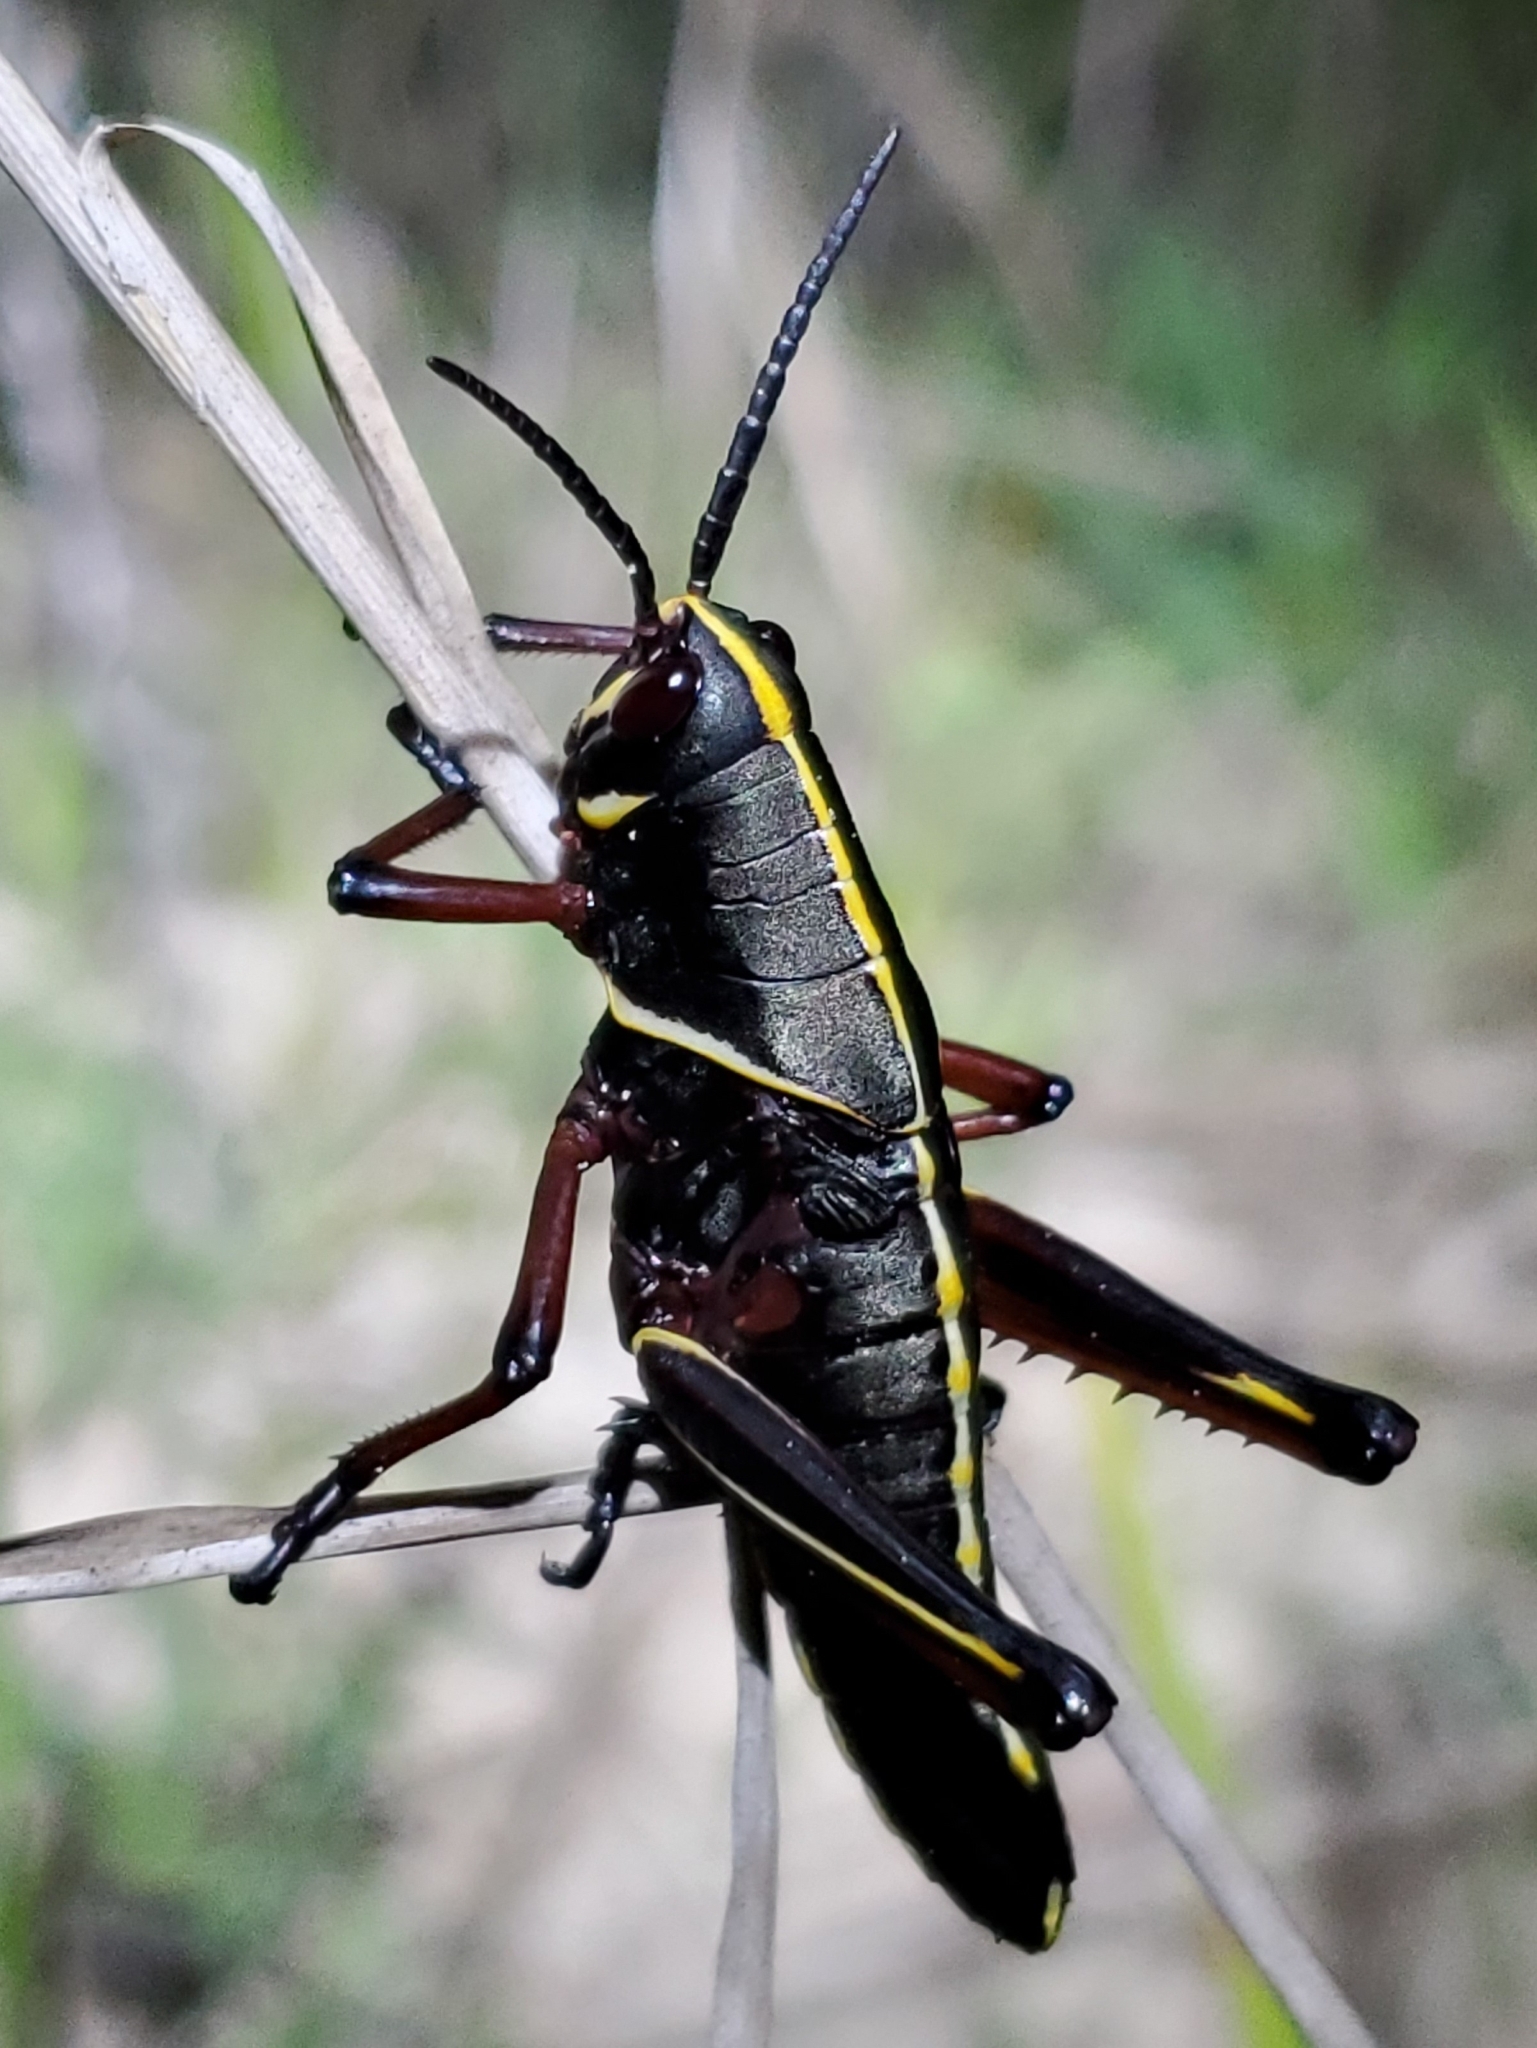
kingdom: Animalia
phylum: Arthropoda
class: Insecta
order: Orthoptera
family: Romaleidae
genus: Romalea
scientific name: Romalea microptera
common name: Eastern lubber grasshopper
